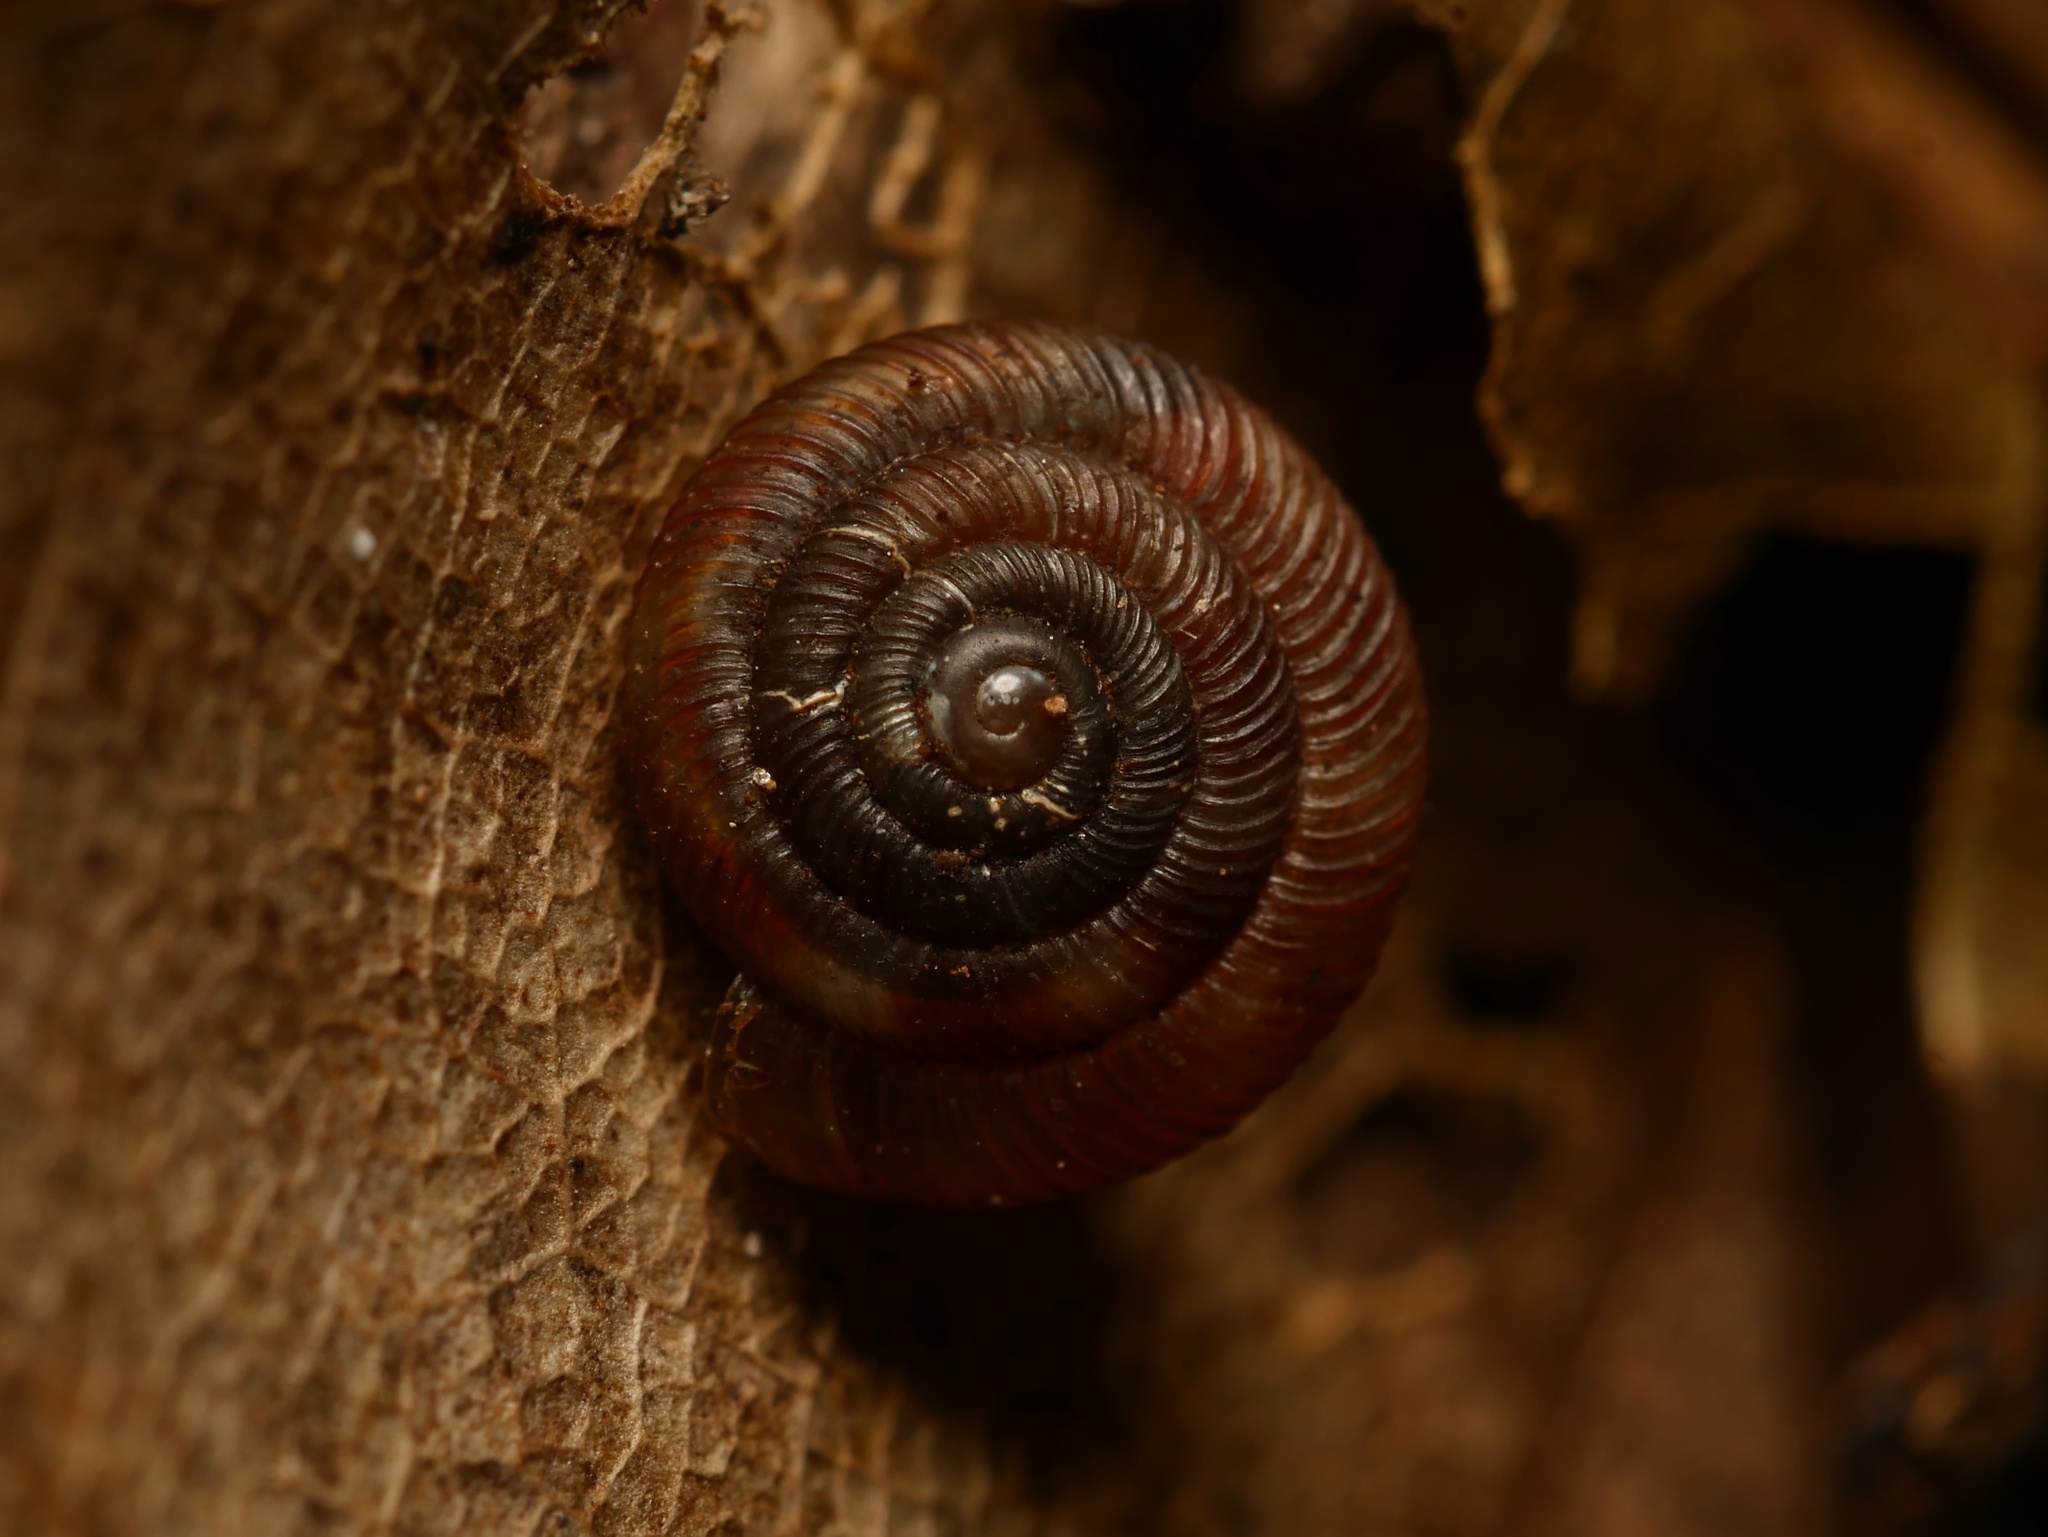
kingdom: Animalia
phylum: Mollusca
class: Gastropoda
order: Stylommatophora
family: Discidae
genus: Discus
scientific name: Discus rotundatus
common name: Rounded snail
